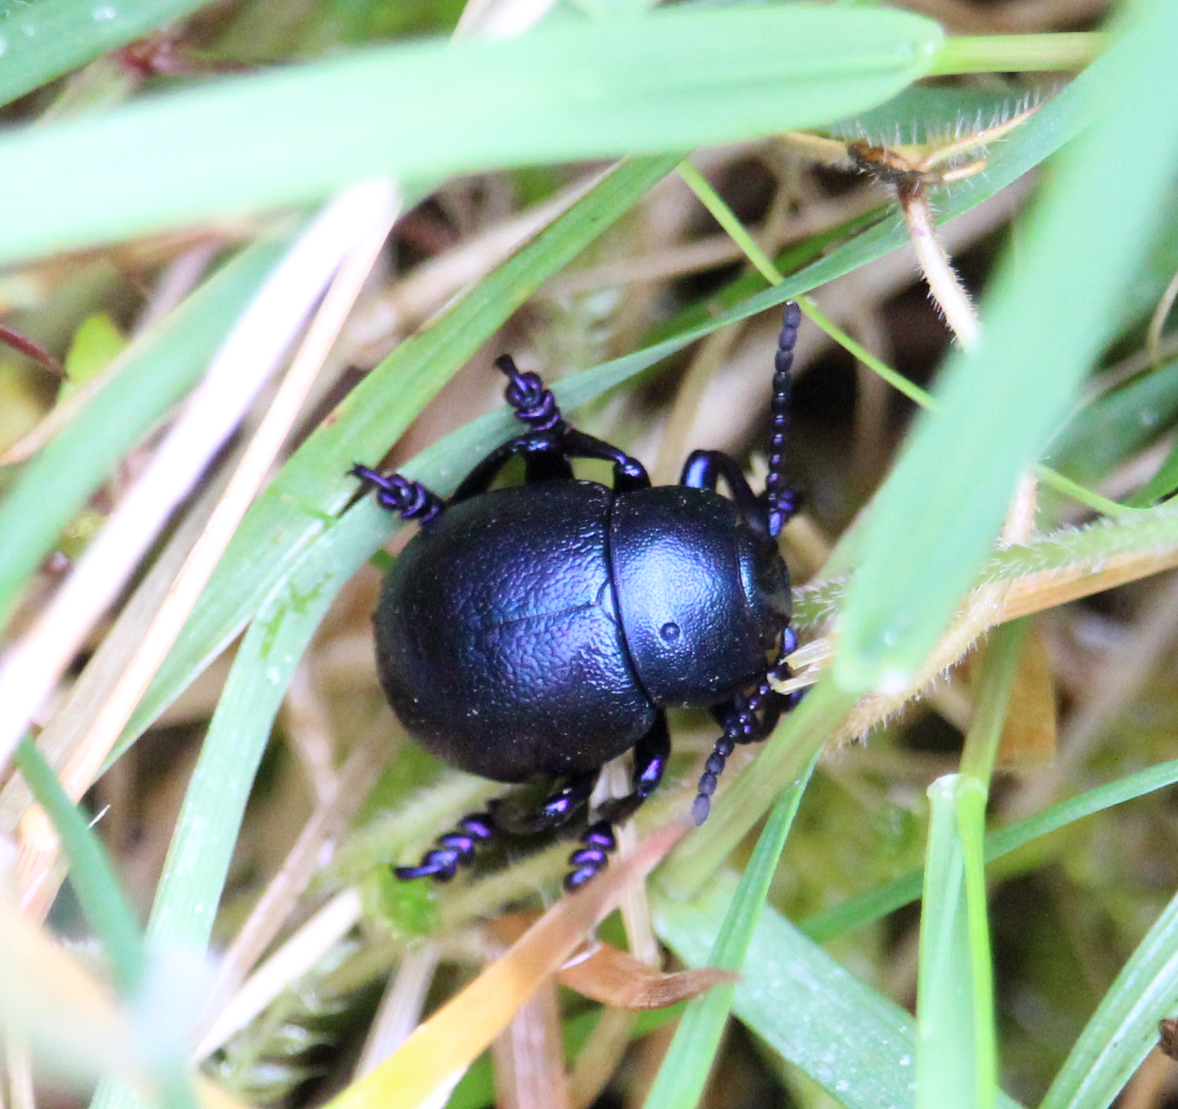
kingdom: Animalia
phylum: Arthropoda
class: Insecta
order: Coleoptera
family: Chrysomelidae
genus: Timarcha
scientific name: Timarcha goettingensis
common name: Small bloody-nosed beetle
